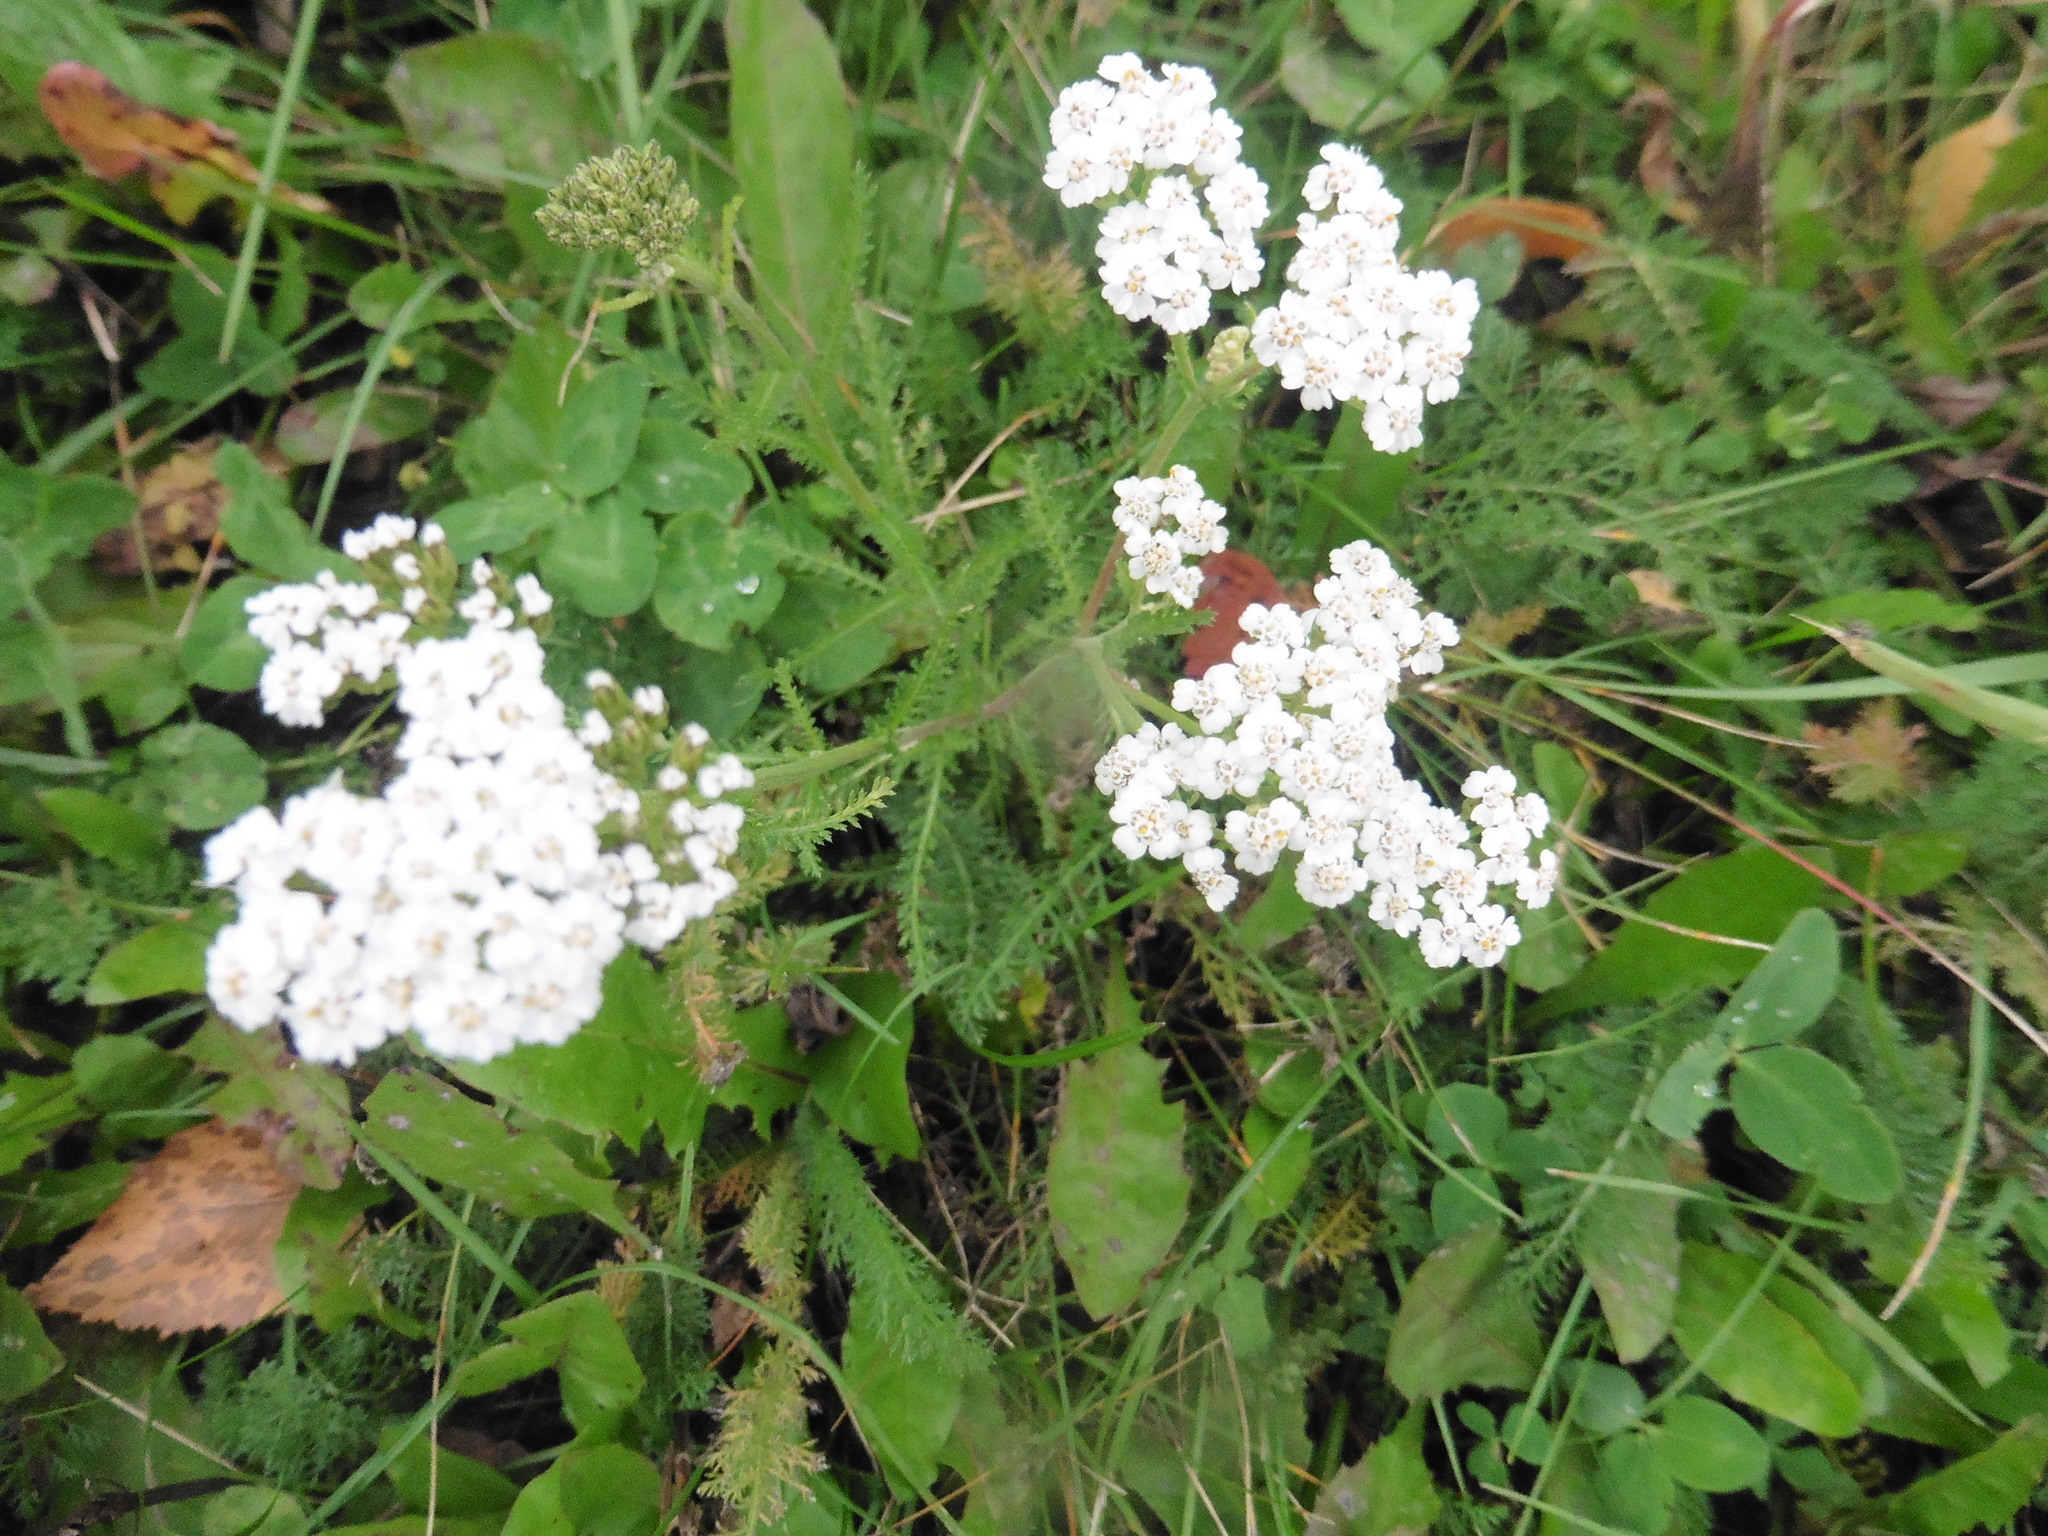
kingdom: Plantae
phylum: Tracheophyta
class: Magnoliopsida
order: Asterales
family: Asteraceae
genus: Achillea
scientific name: Achillea millefolium
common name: Yarrow
